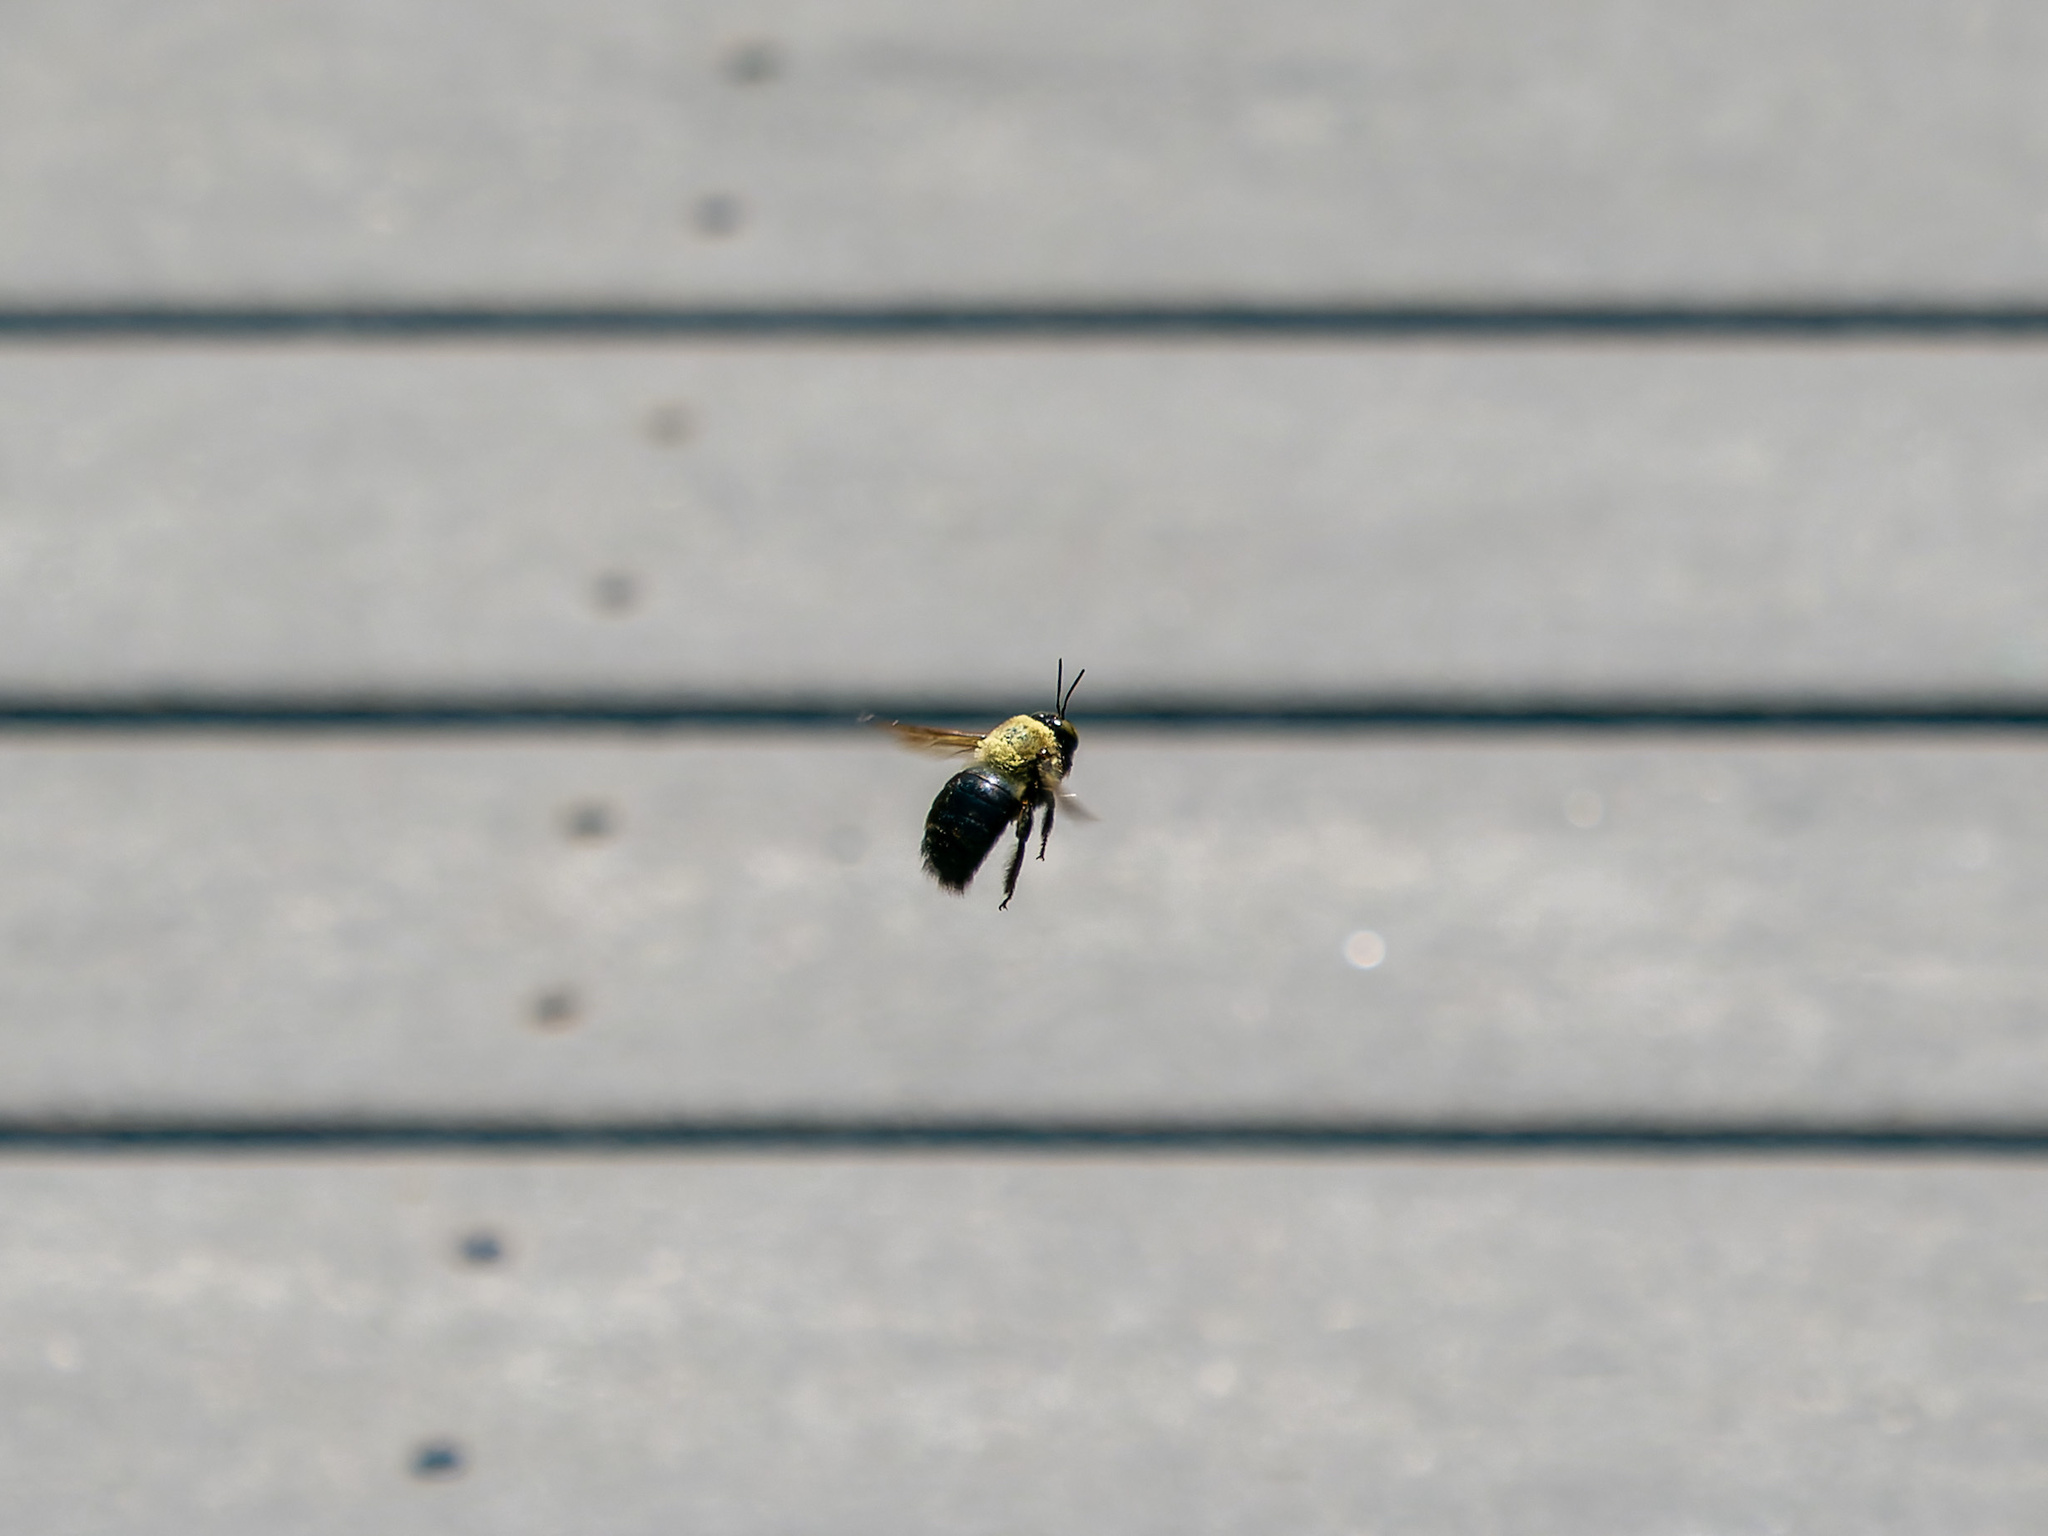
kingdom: Animalia
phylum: Arthropoda
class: Insecta
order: Hymenoptera
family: Apidae
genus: Xylocopa
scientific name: Xylocopa virginica
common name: Carpenter bee
